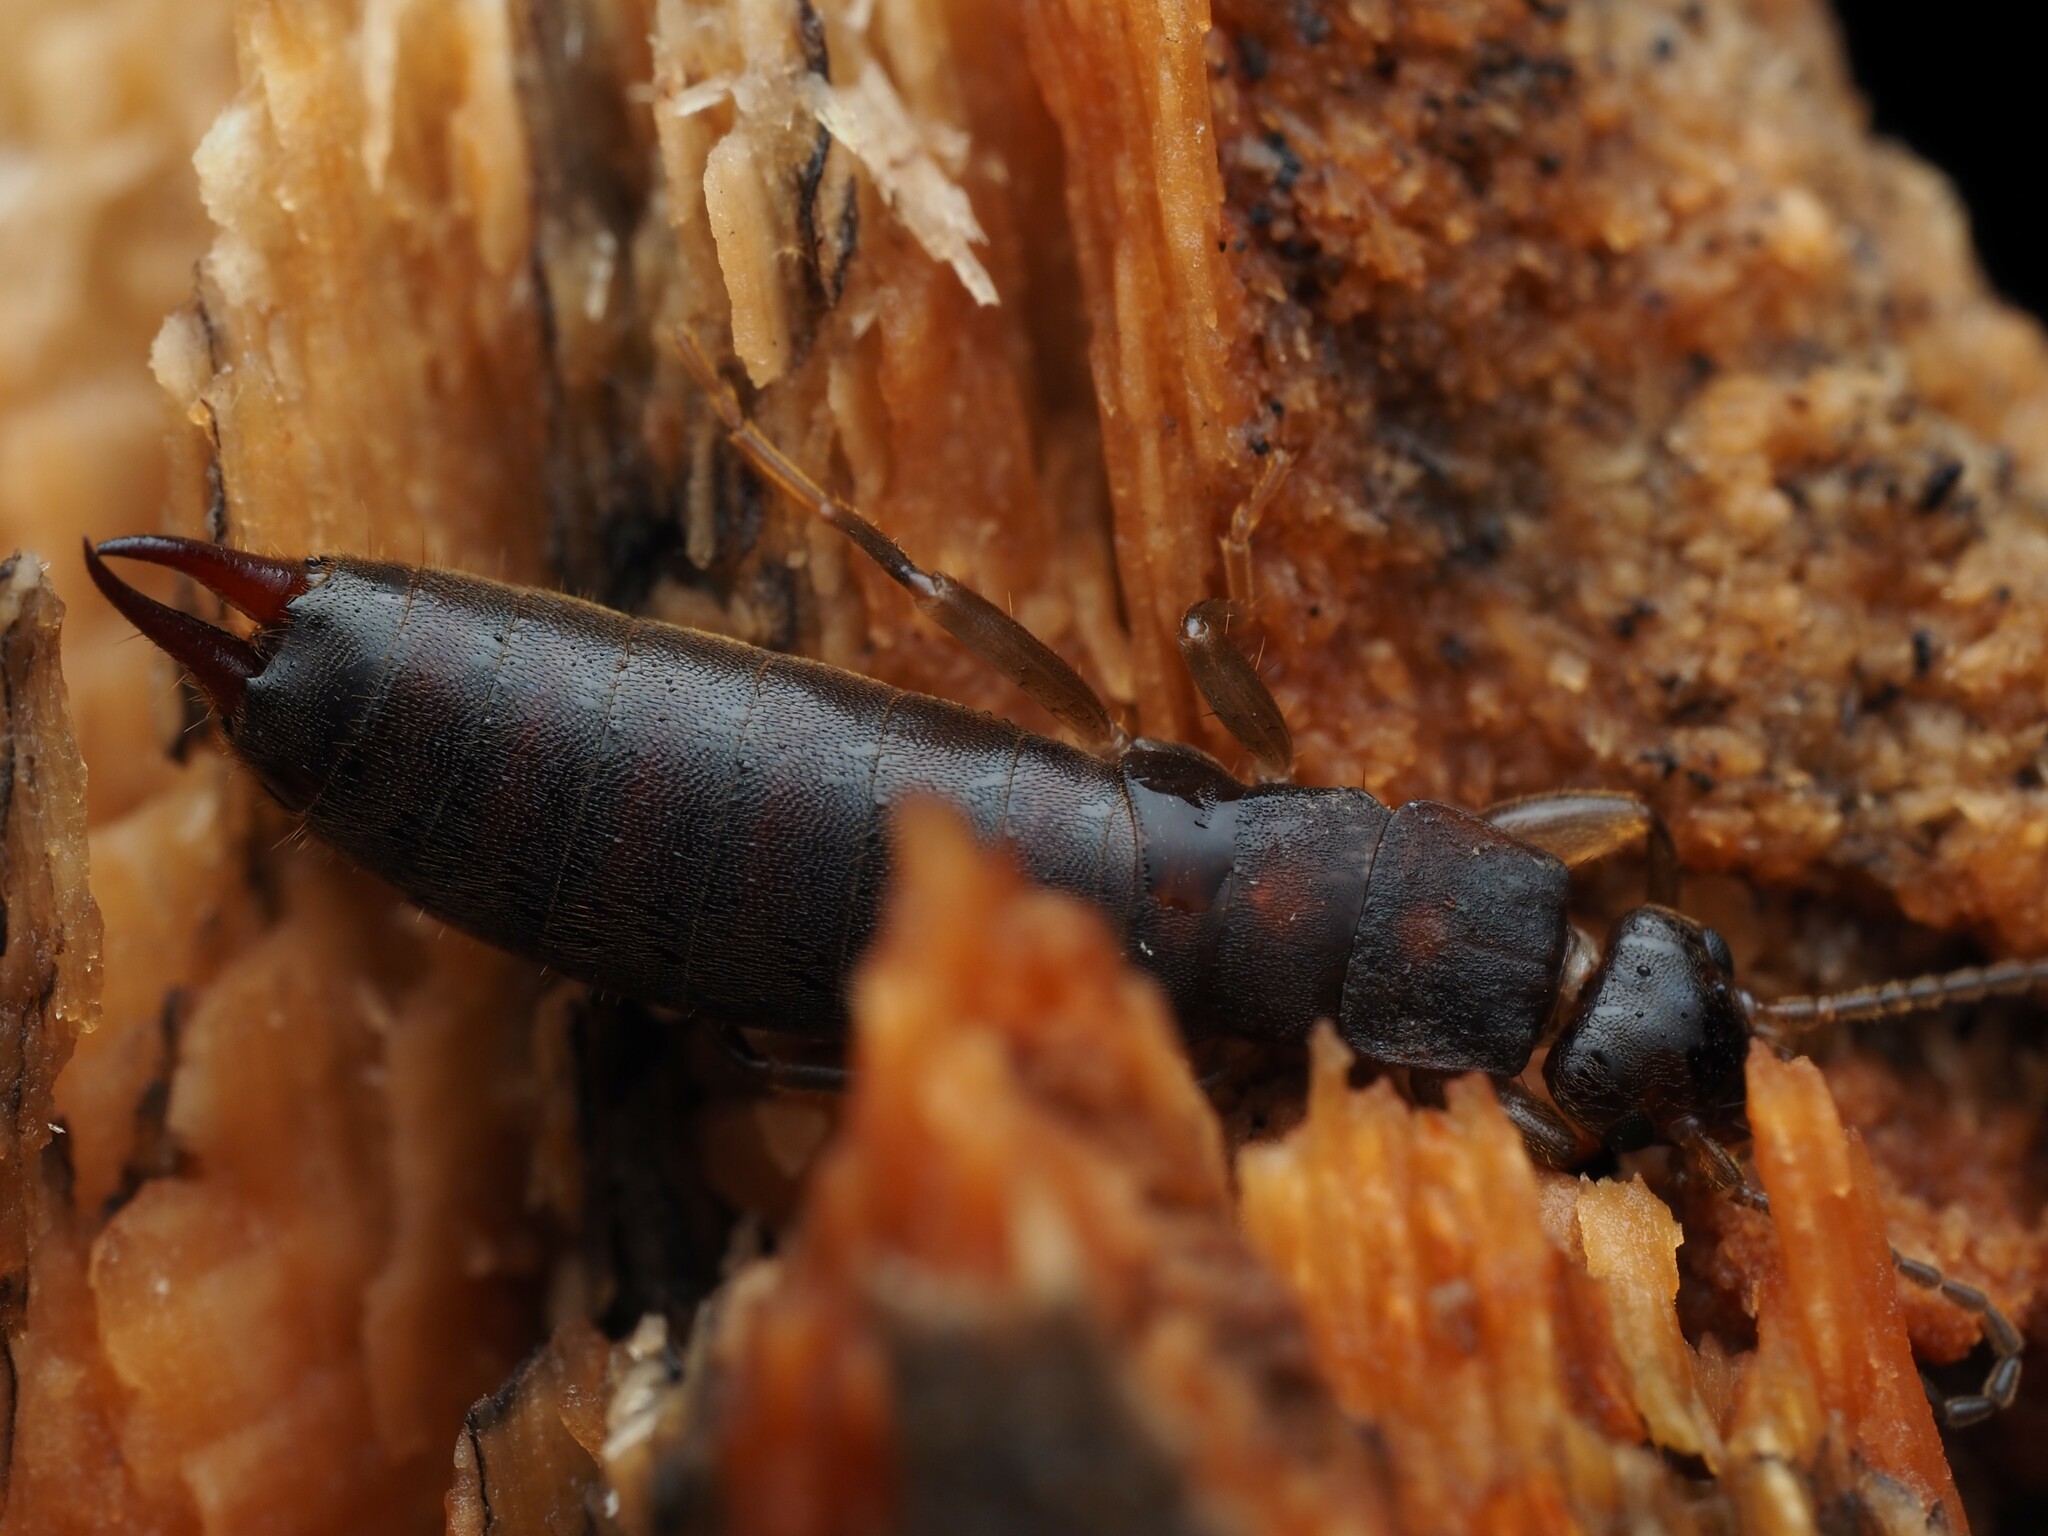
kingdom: Animalia
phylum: Arthropoda
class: Insecta
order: Dermaptera
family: Anisolabididae
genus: Parisolabis
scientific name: Parisolabis novaezeelandiae
